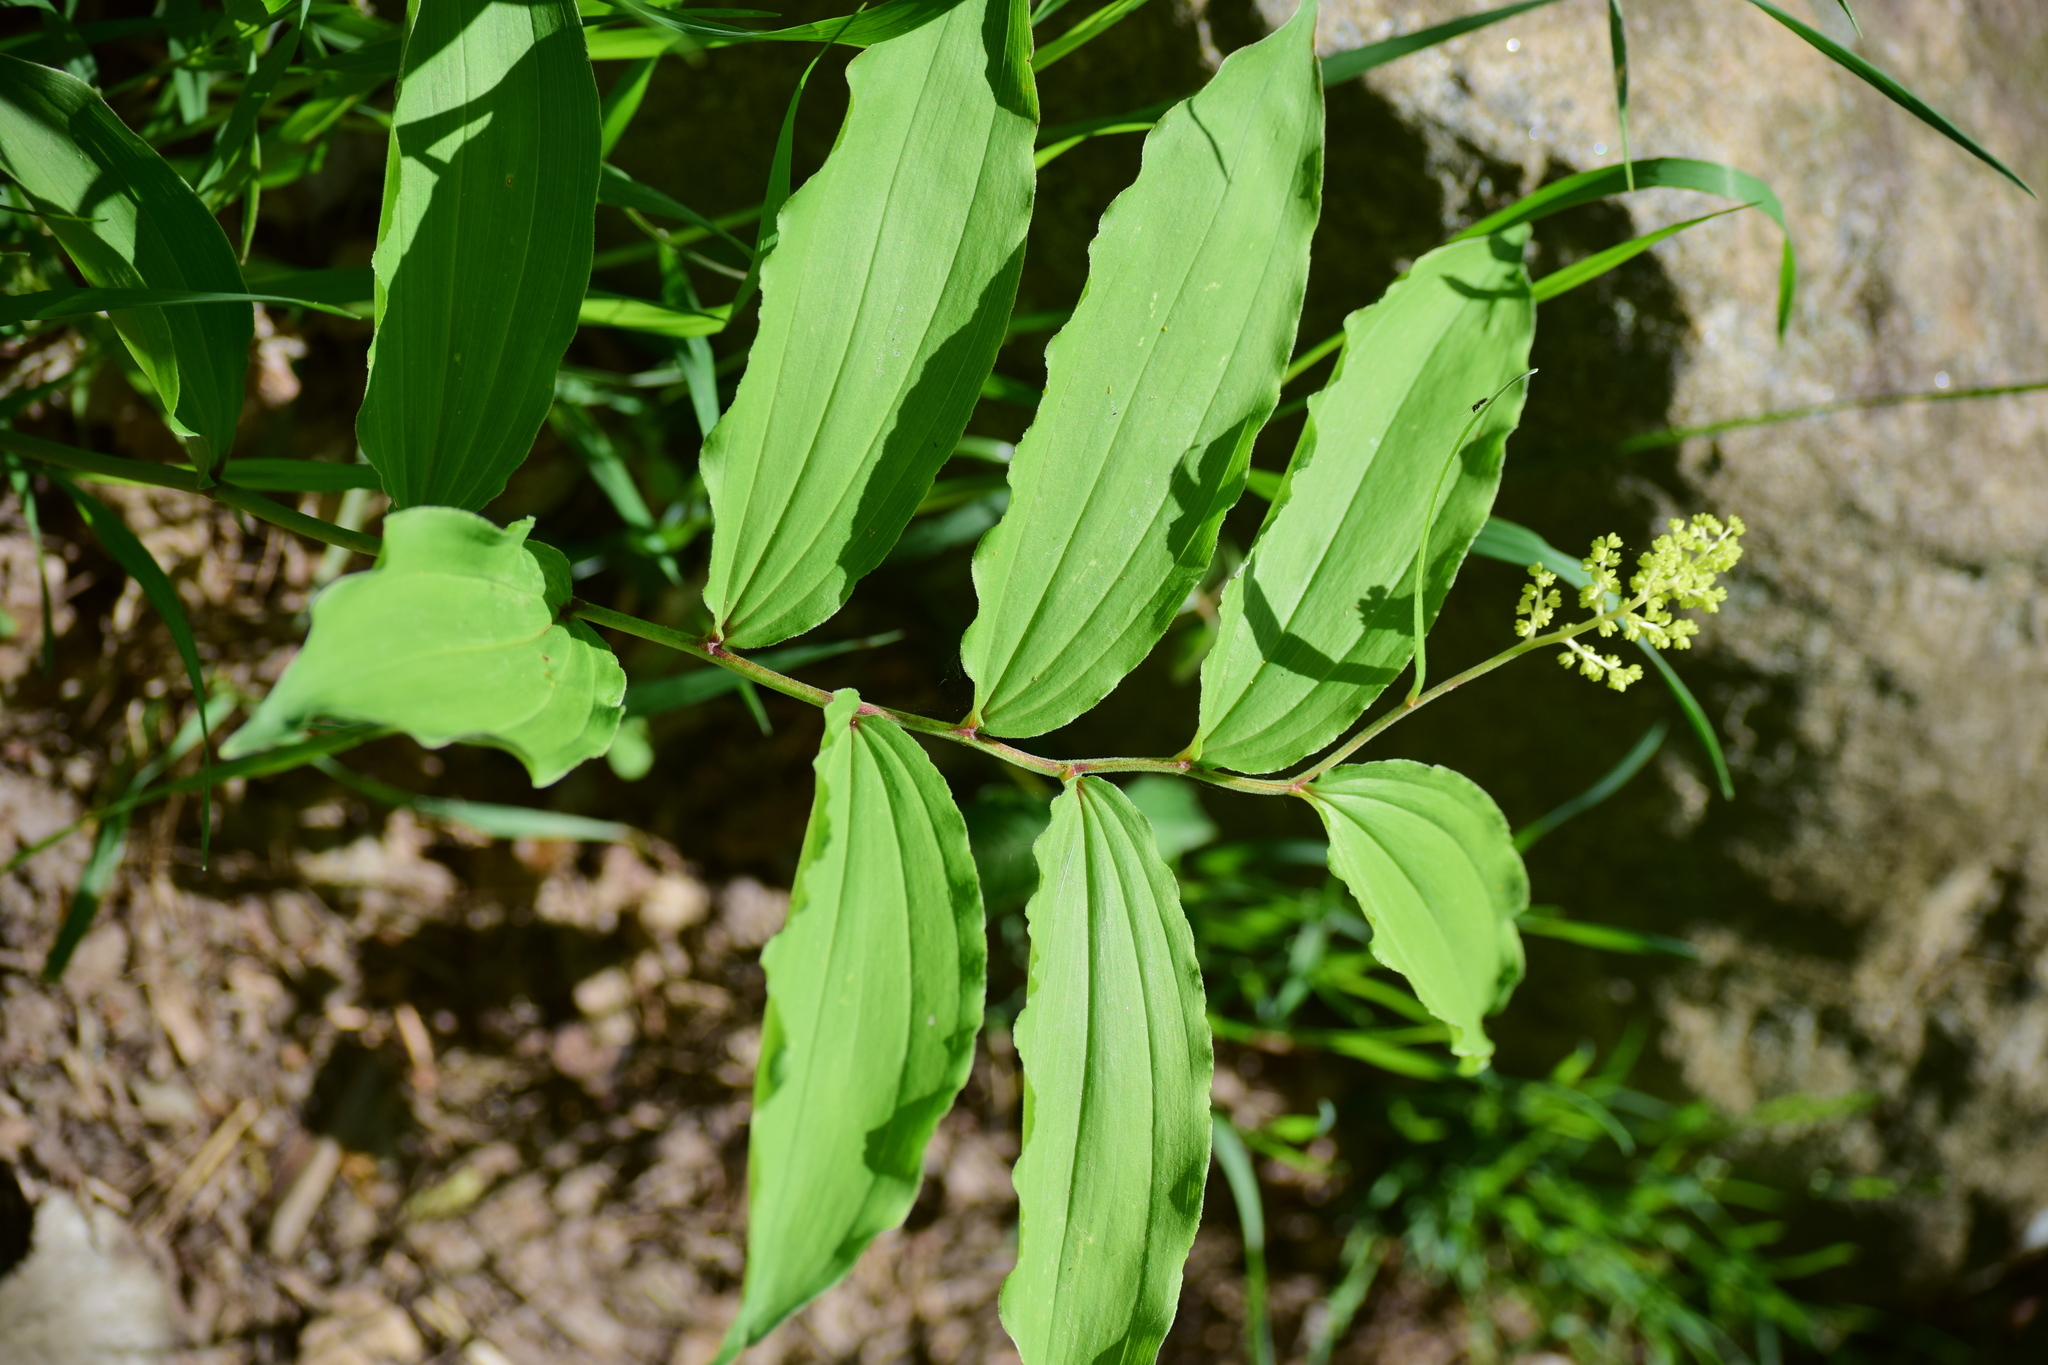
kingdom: Plantae
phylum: Tracheophyta
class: Liliopsida
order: Asparagales
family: Asparagaceae
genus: Maianthemum
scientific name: Maianthemum racemosum
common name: False spikenard
